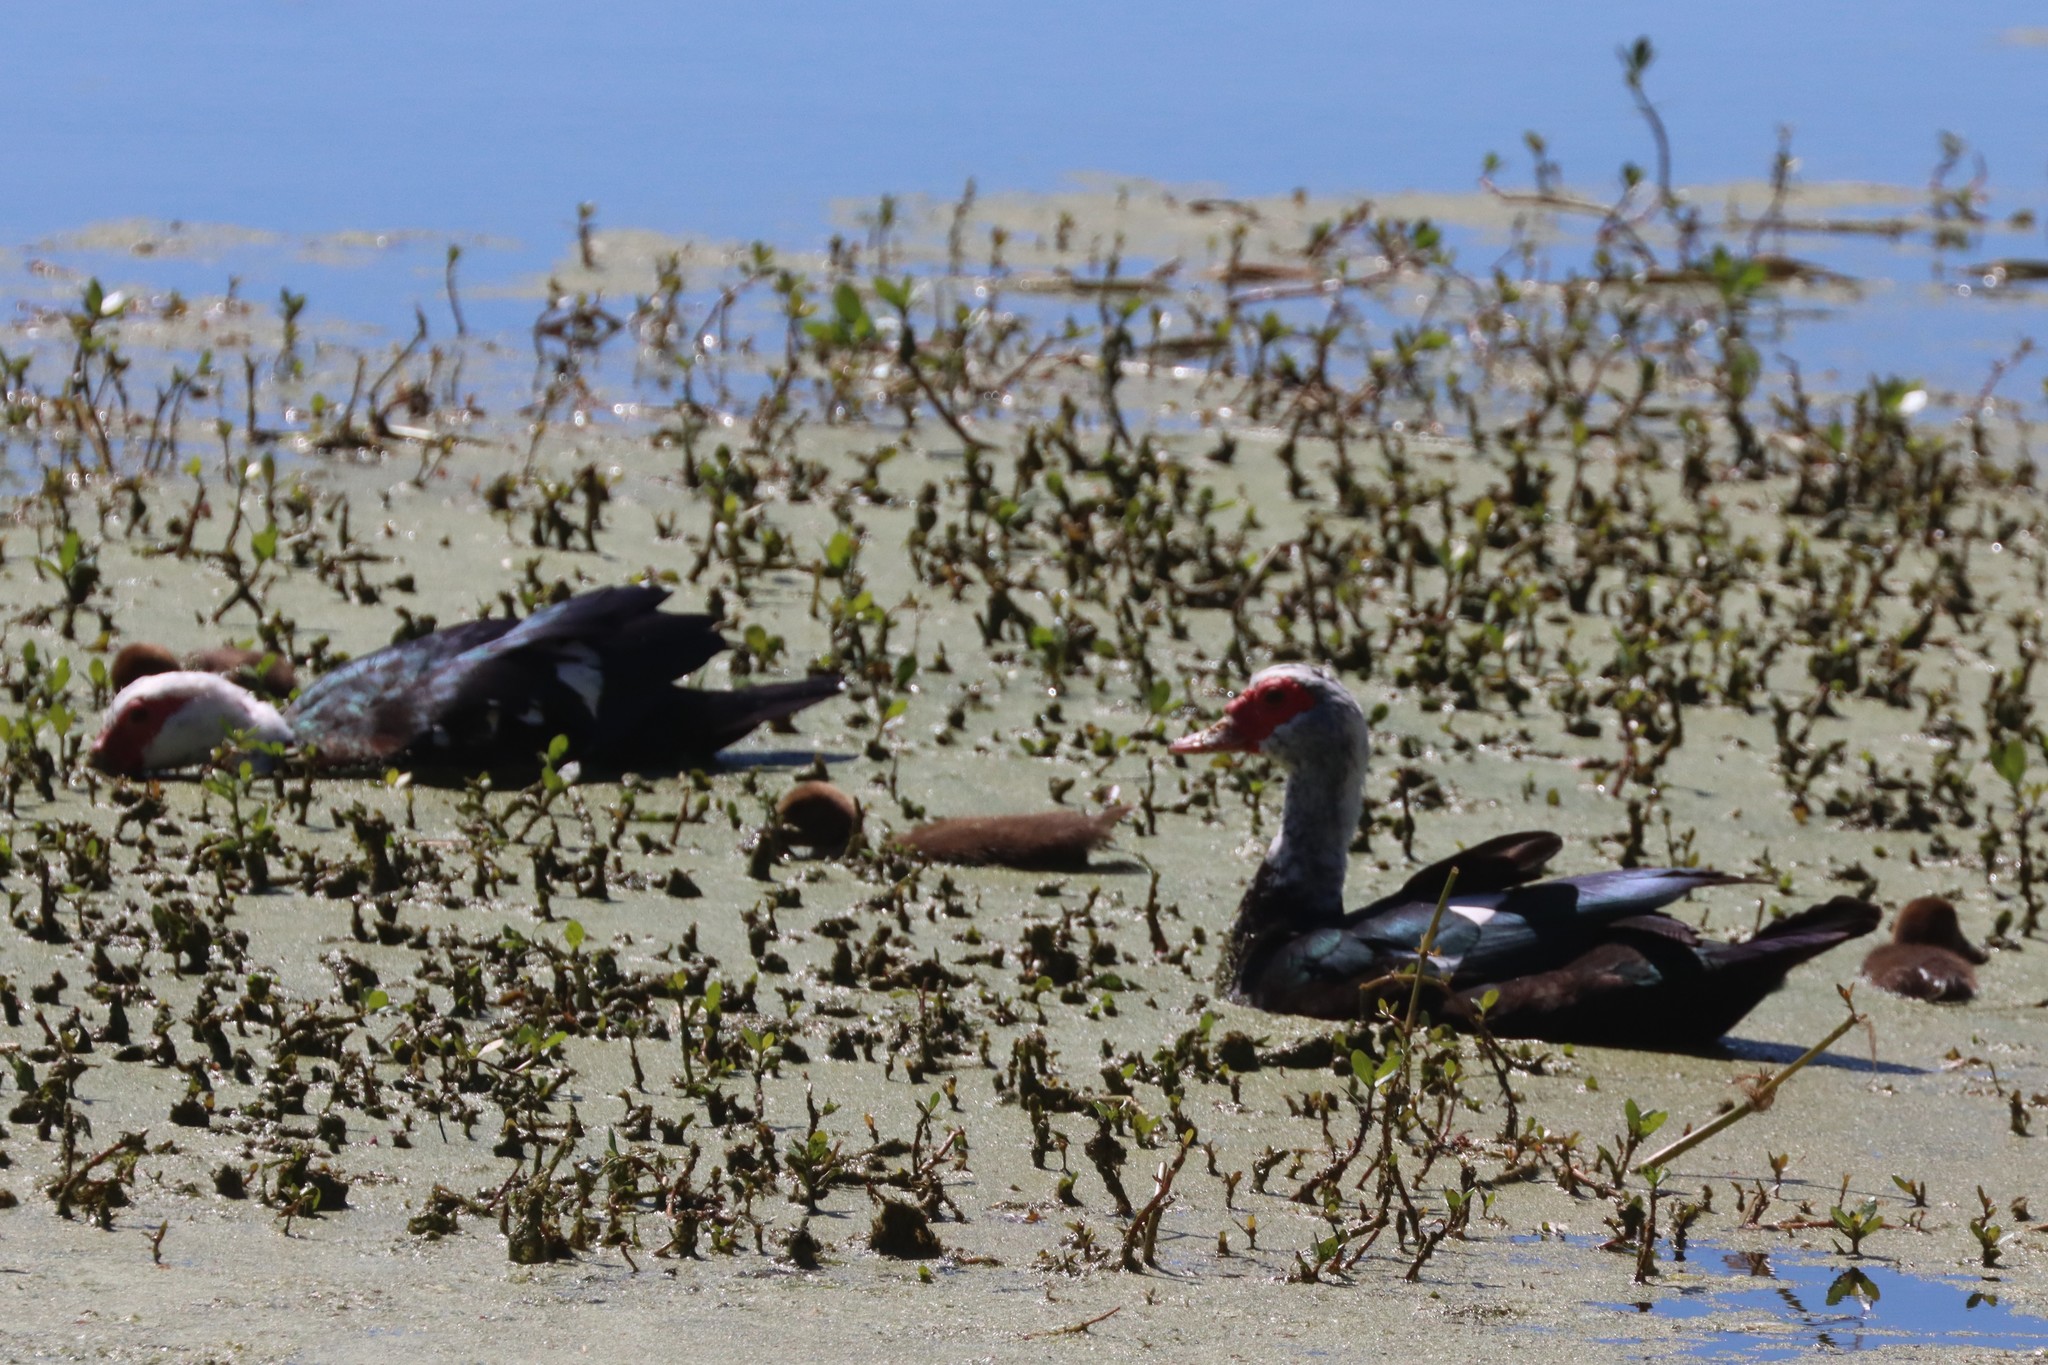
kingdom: Animalia
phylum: Chordata
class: Aves
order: Anseriformes
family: Anatidae
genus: Cairina
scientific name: Cairina moschata
